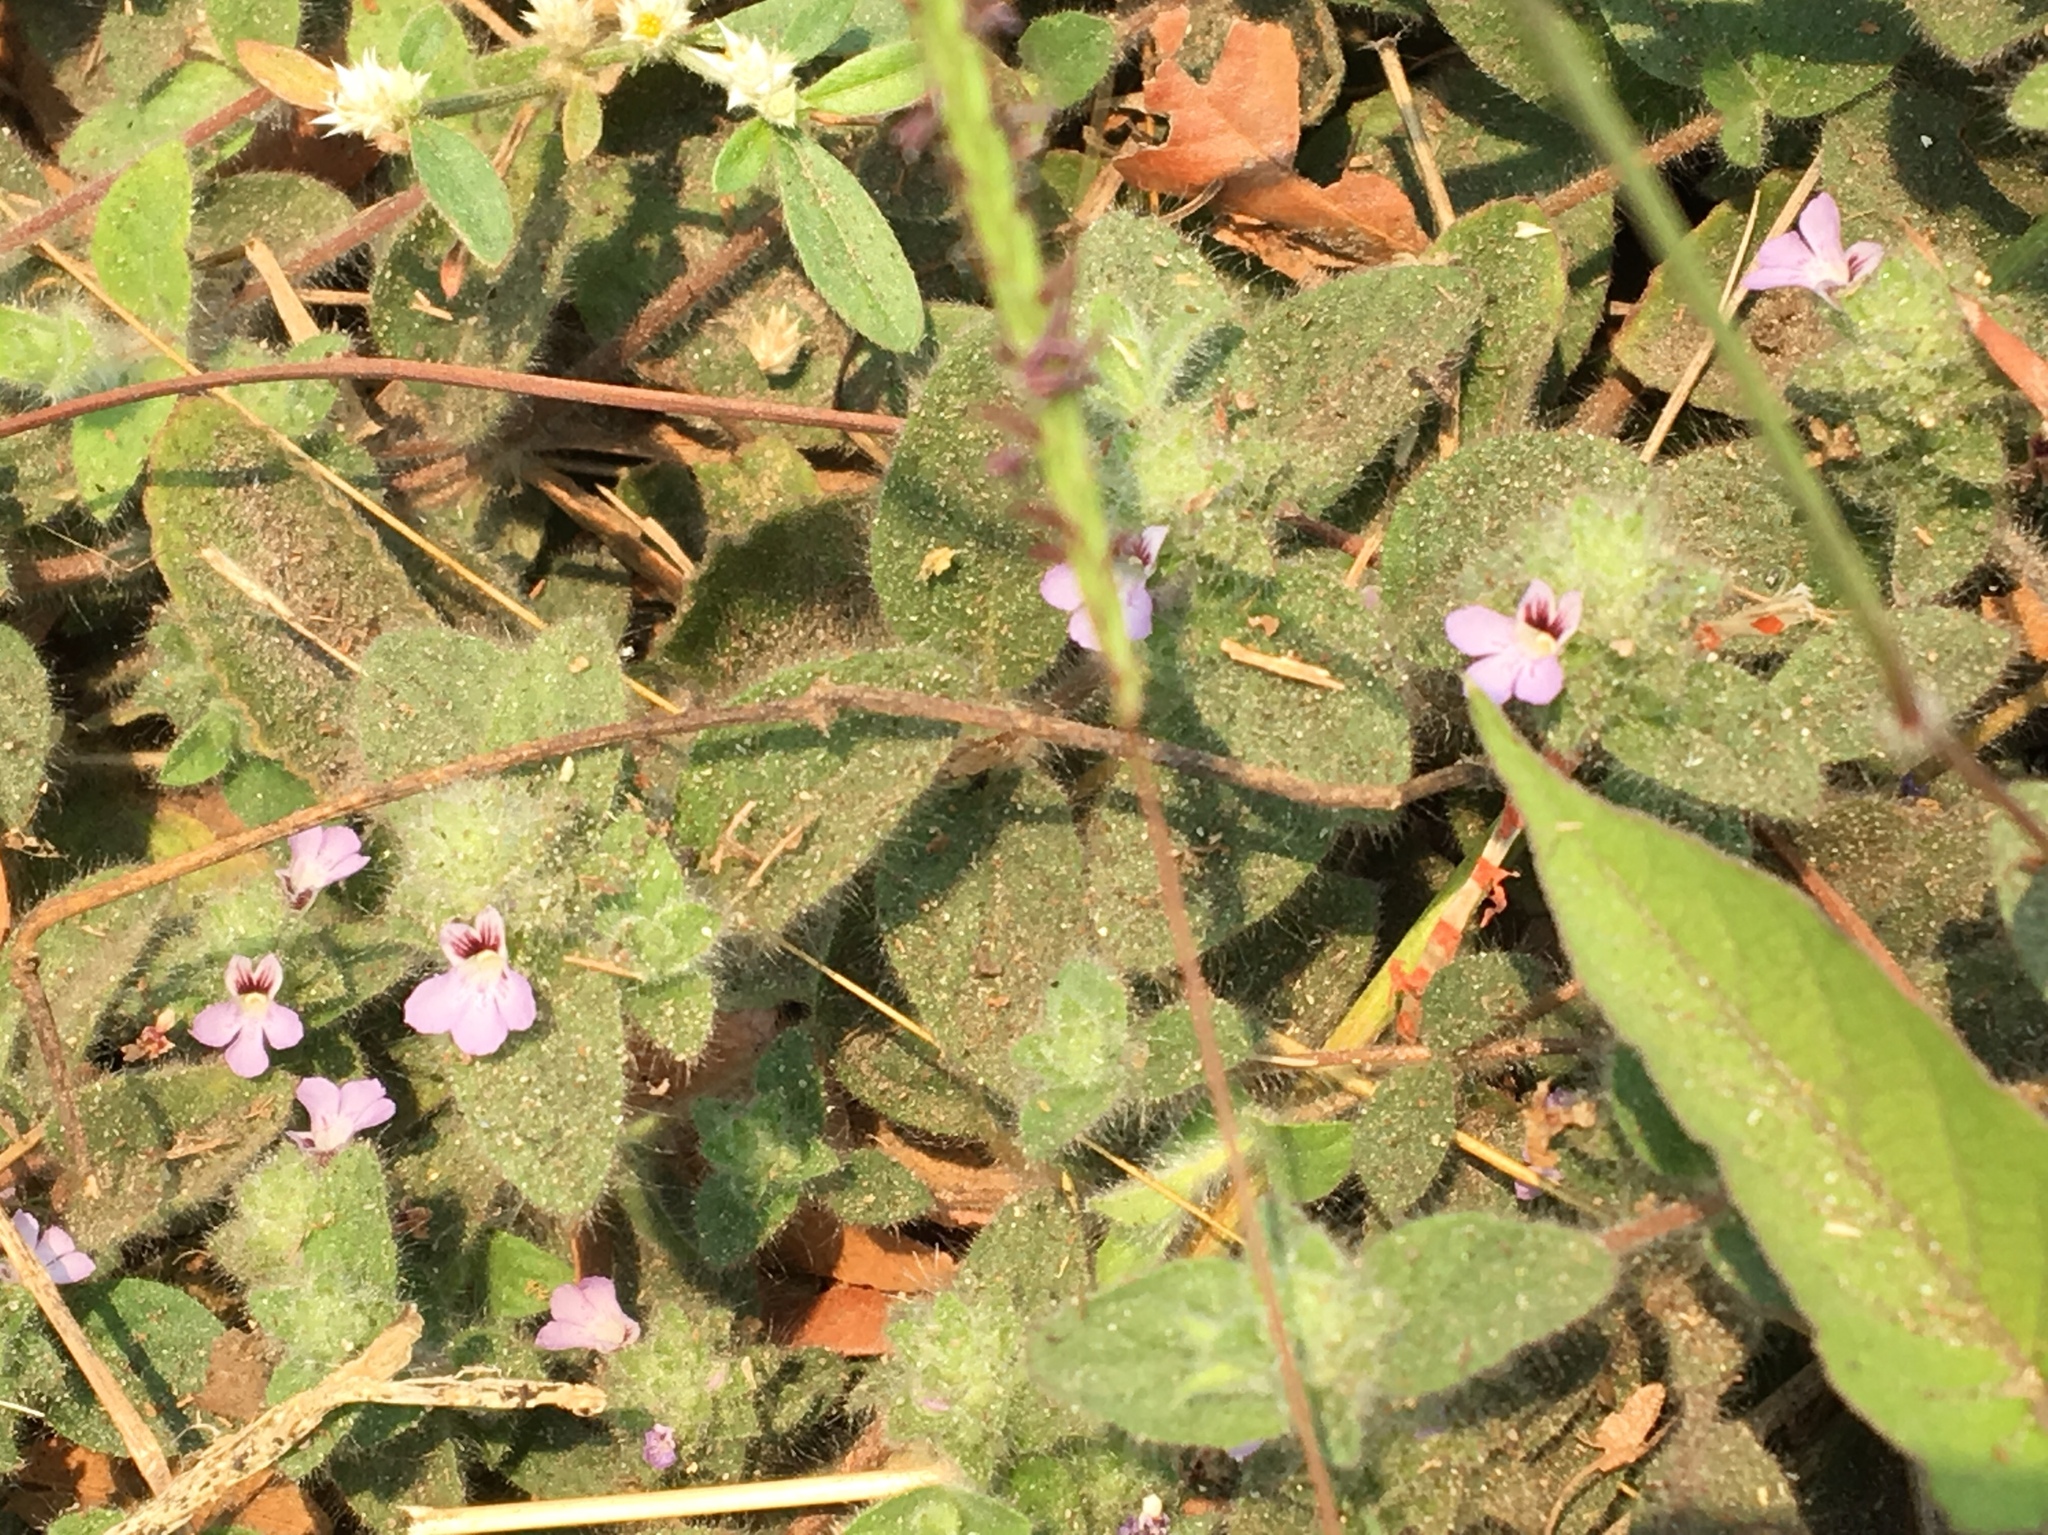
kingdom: Plantae
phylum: Tracheophyta
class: Magnoliopsida
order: Lamiales
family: Acanthaceae
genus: Nelsonia
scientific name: Nelsonia canescens
